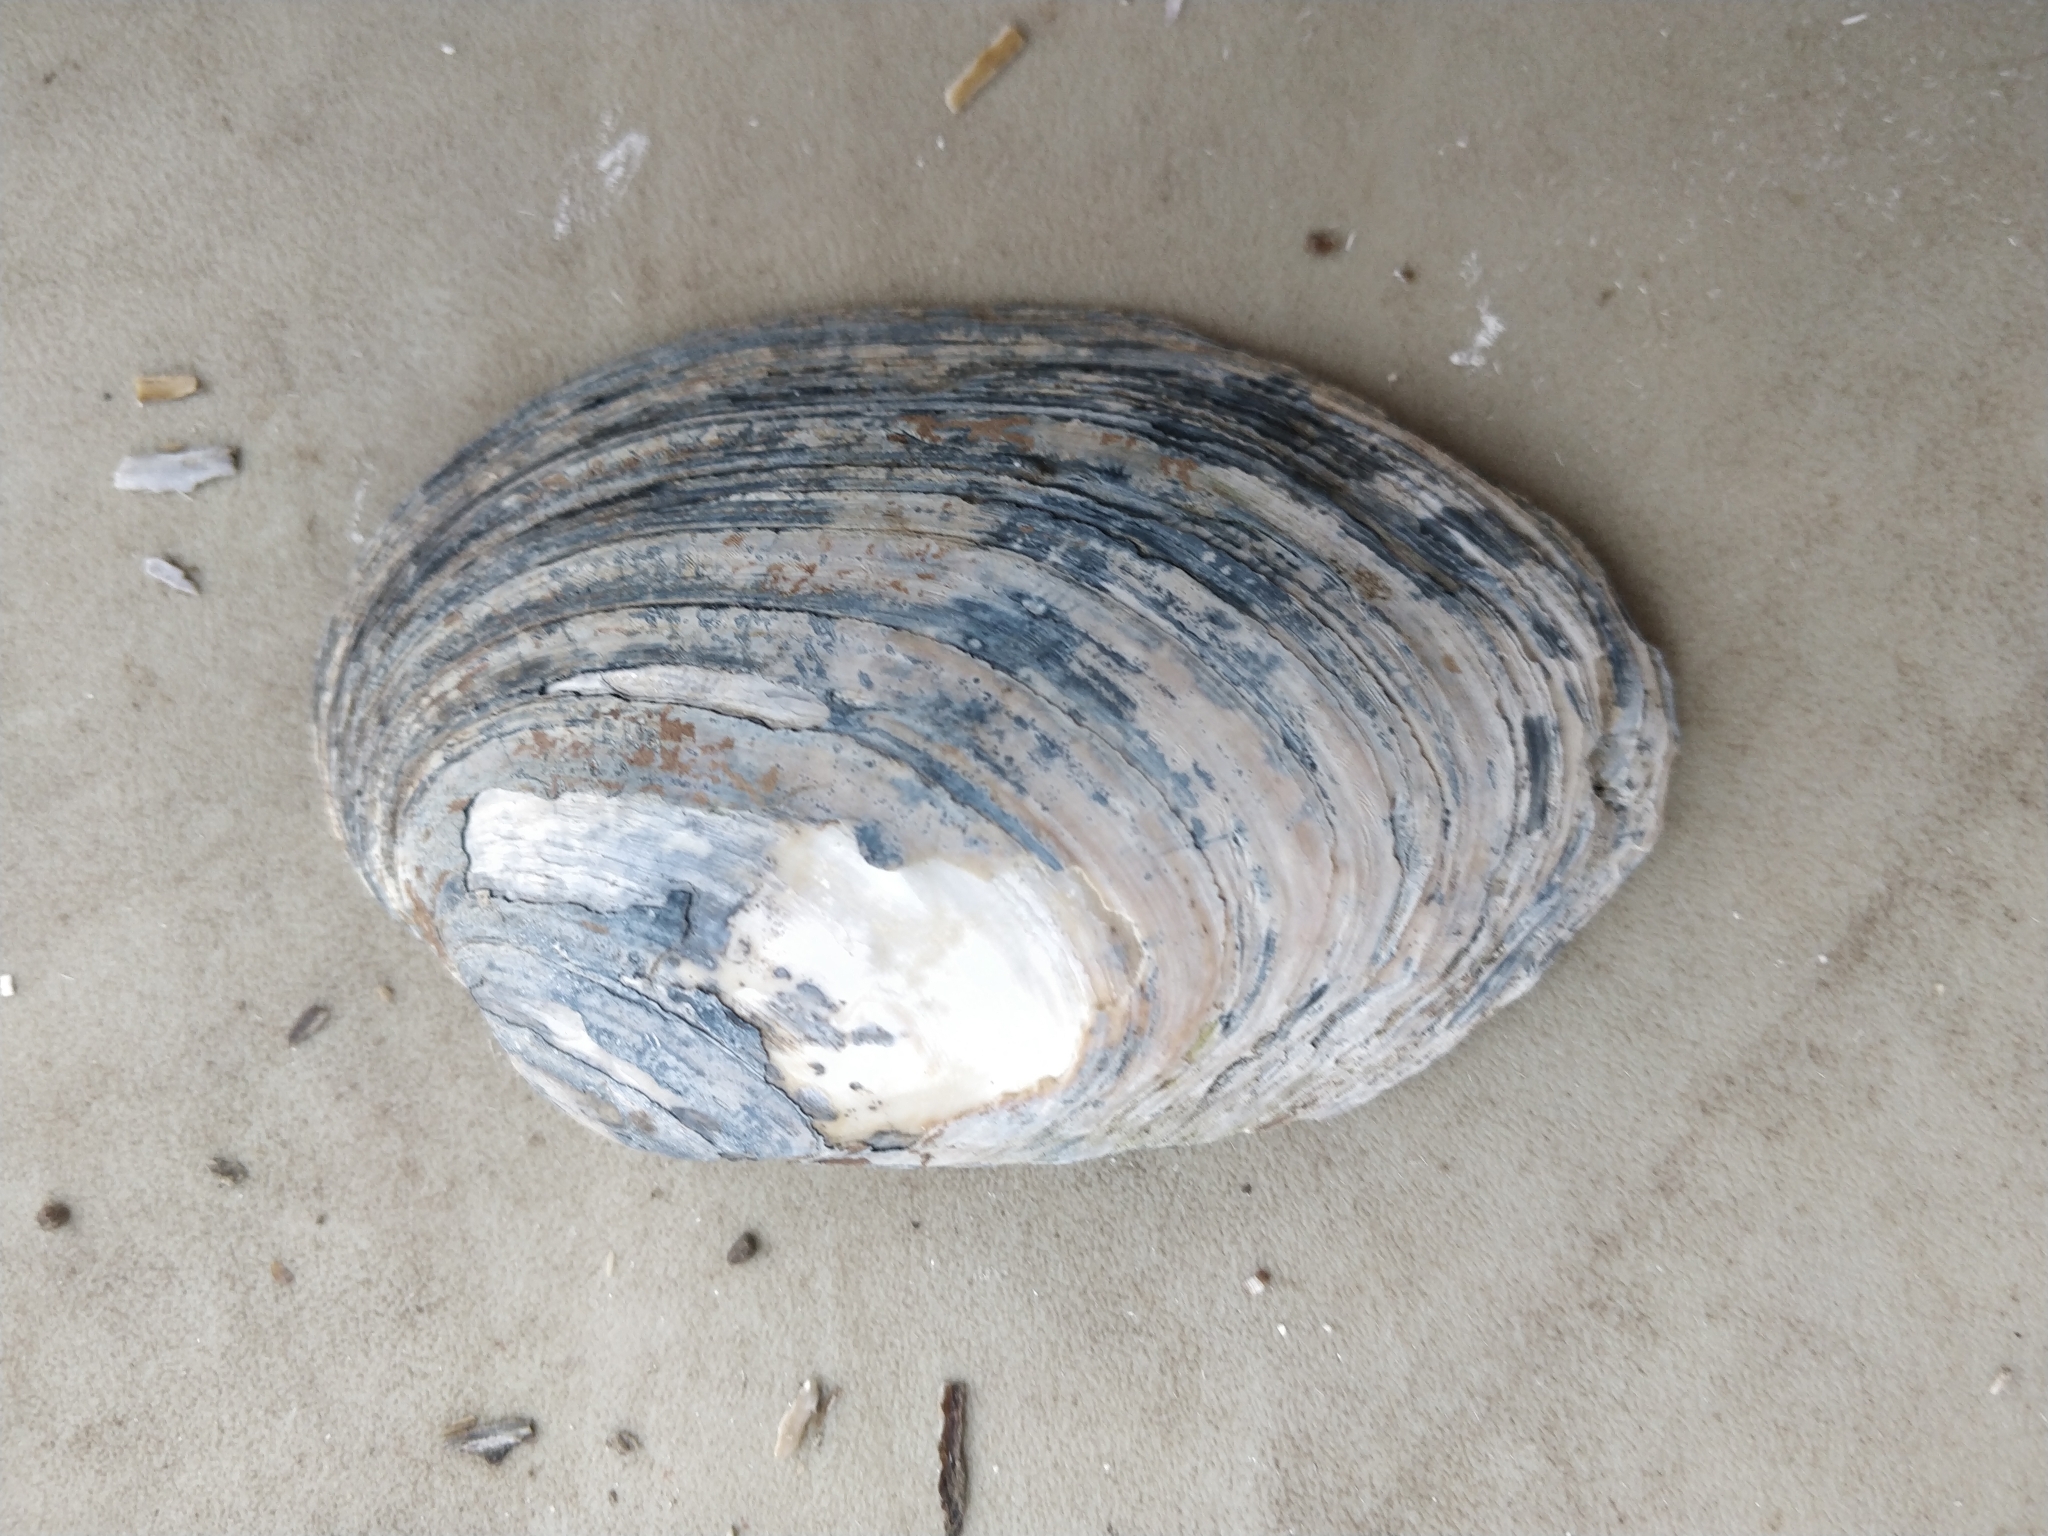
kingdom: Animalia
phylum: Mollusca
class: Bivalvia
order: Unionida
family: Unionidae
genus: Lampsilis
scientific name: Lampsilis cardium
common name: Plain pocketbook
